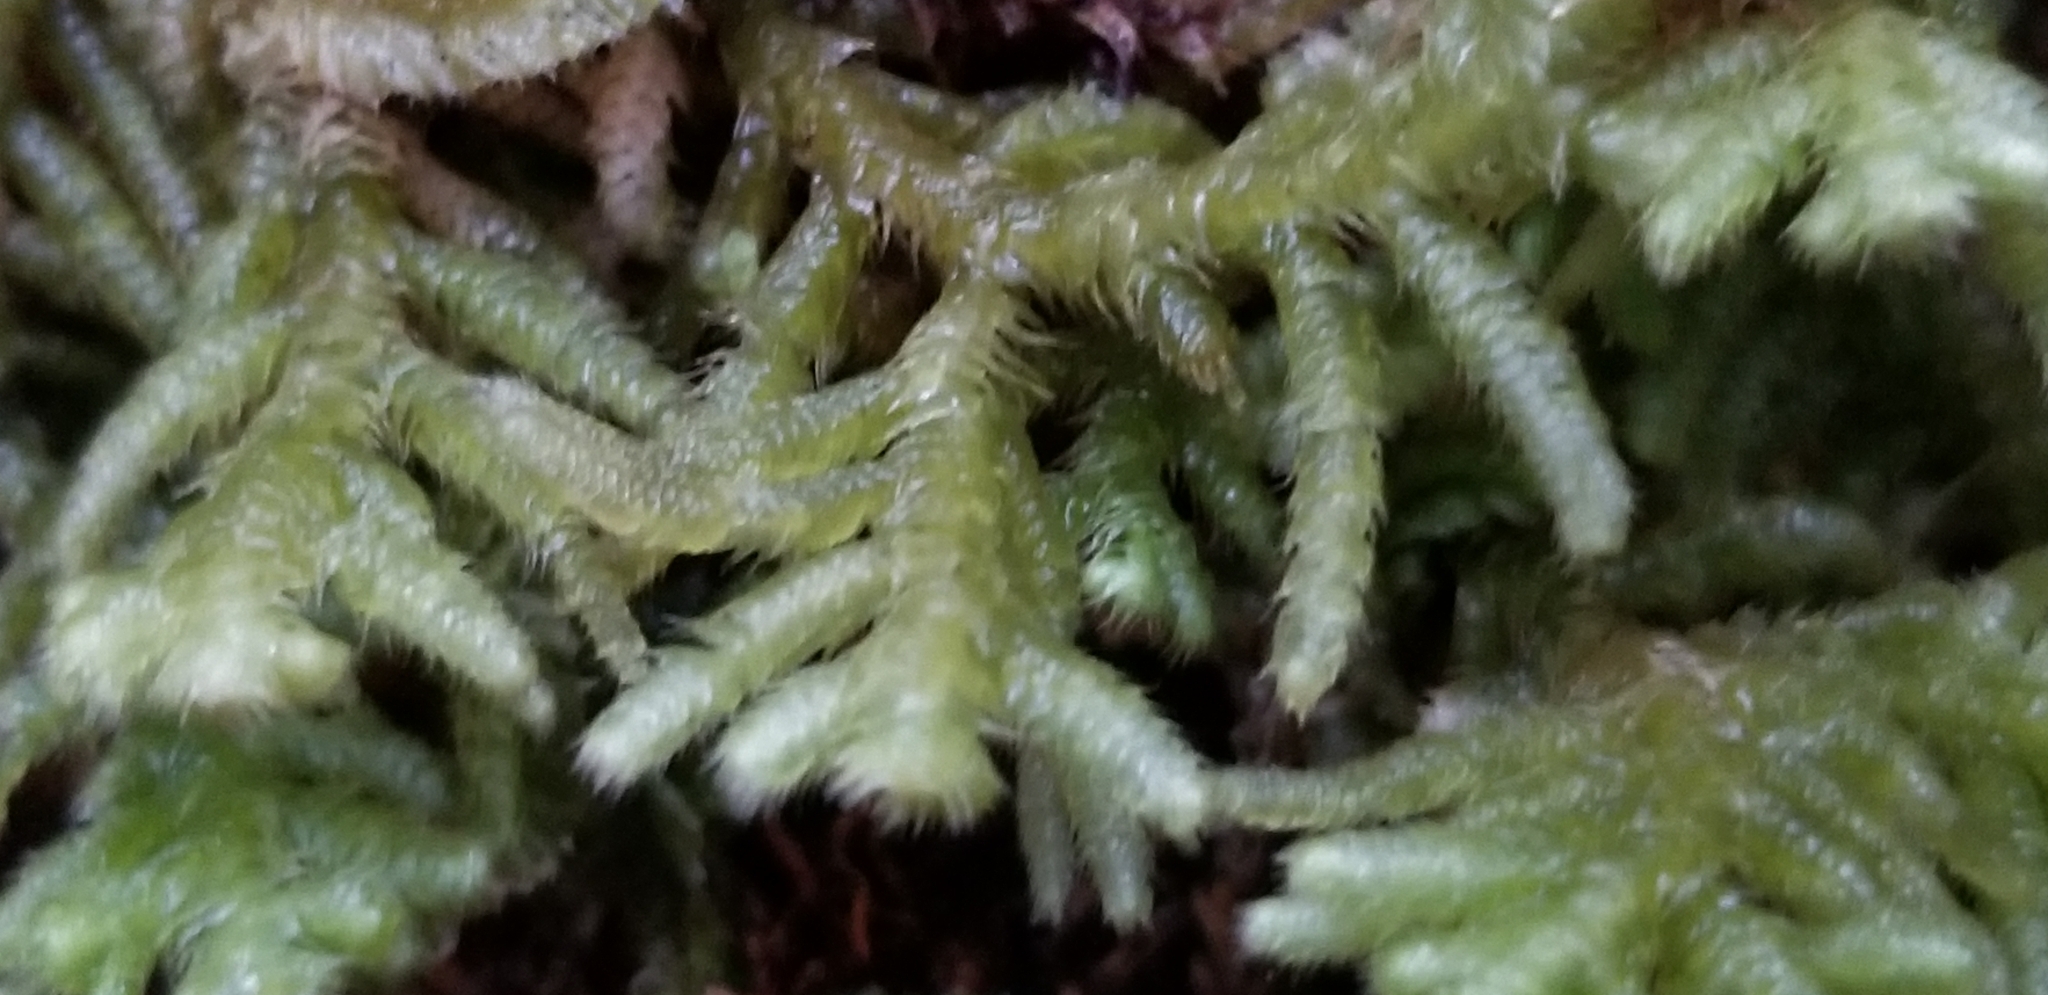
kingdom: Plantae
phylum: Marchantiophyta
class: Jungermanniopsida
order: Jungermanniales
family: Lepidoziaceae
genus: Lepidozia
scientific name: Lepidozia ulothrix
